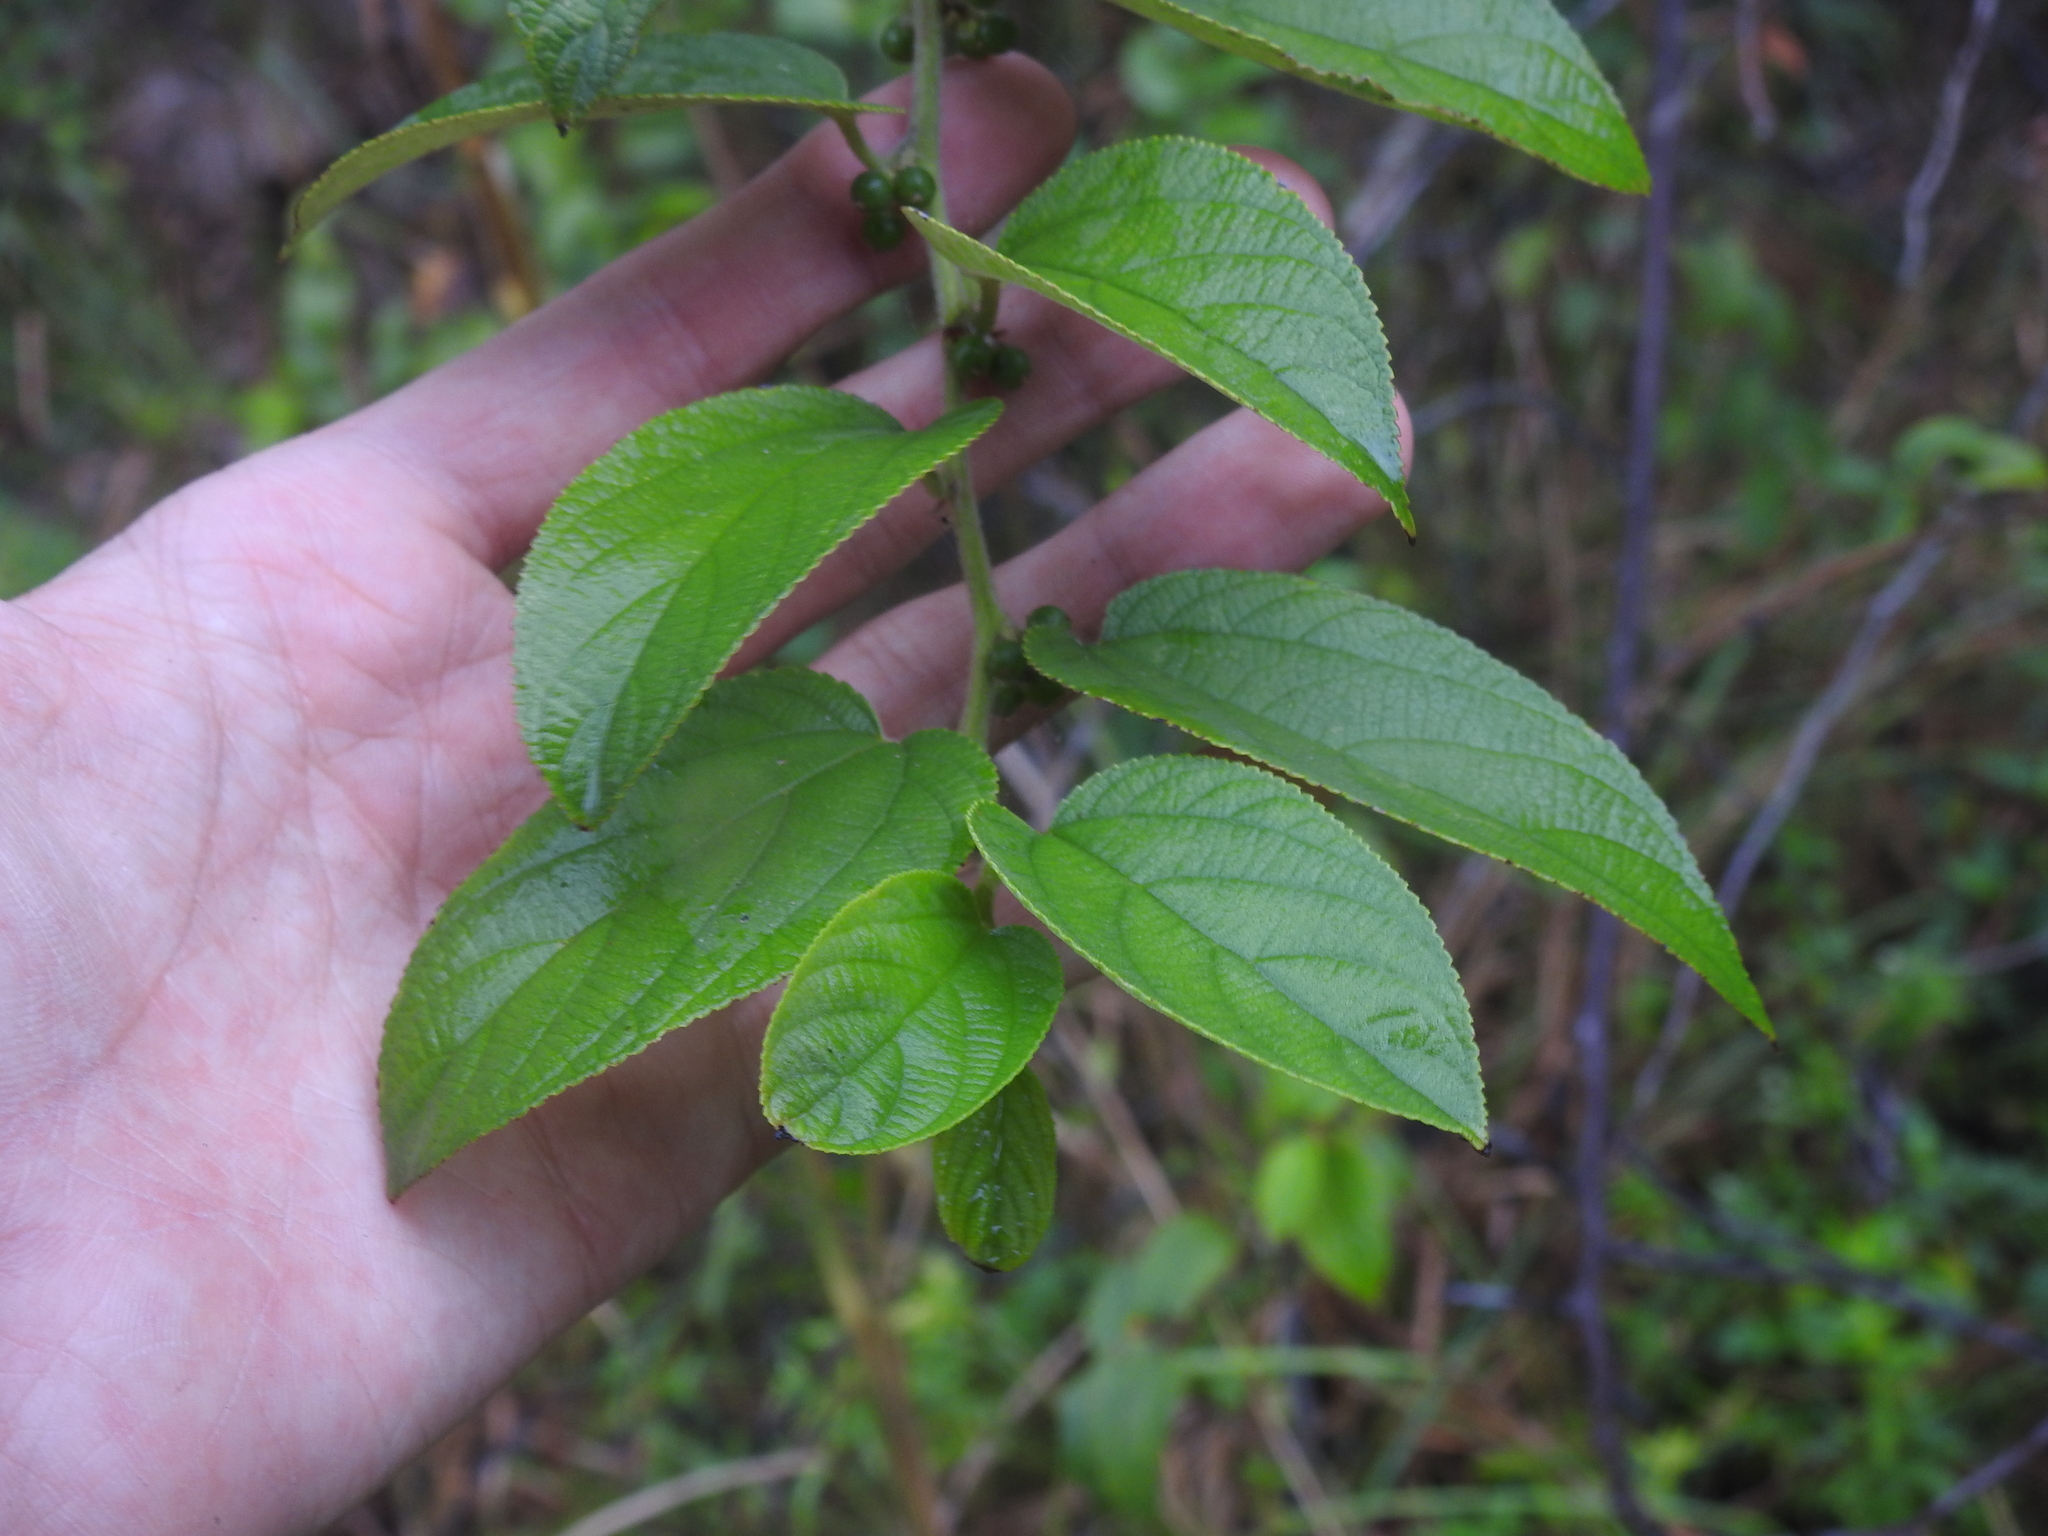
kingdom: Plantae
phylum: Tracheophyta
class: Magnoliopsida
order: Rosales
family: Cannabaceae
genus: Trema
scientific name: Trema micranthum
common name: Jamaican nettletree
